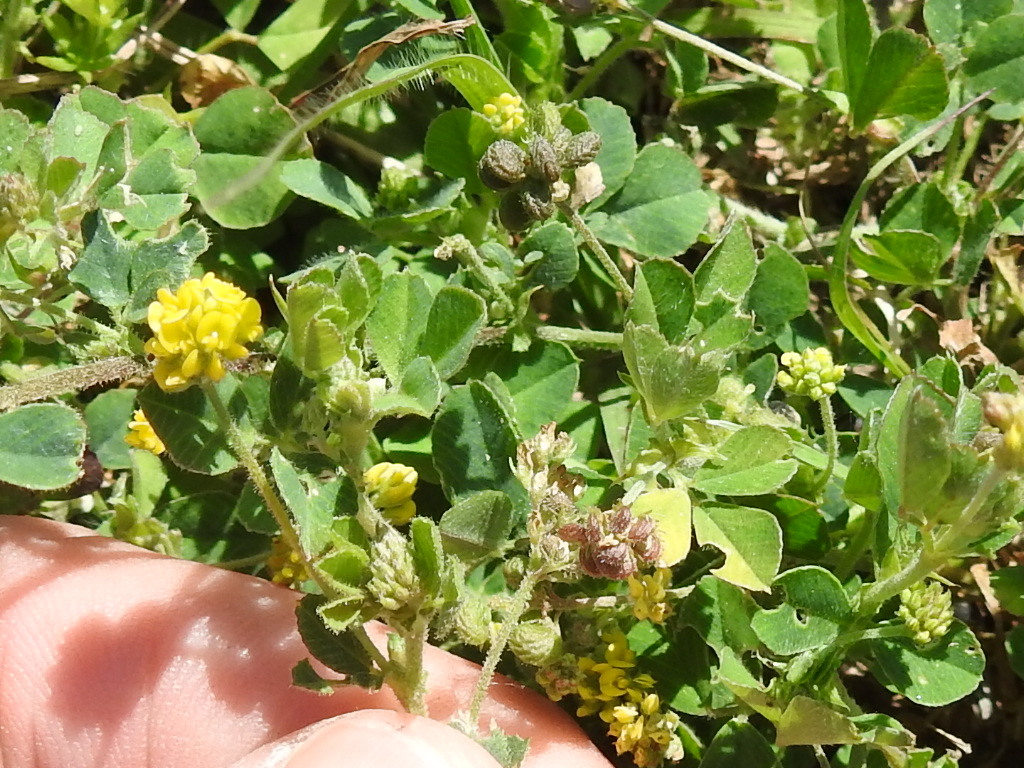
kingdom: Plantae
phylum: Tracheophyta
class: Magnoliopsida
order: Fabales
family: Fabaceae
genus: Medicago
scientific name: Medicago lupulina
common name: Black medick
